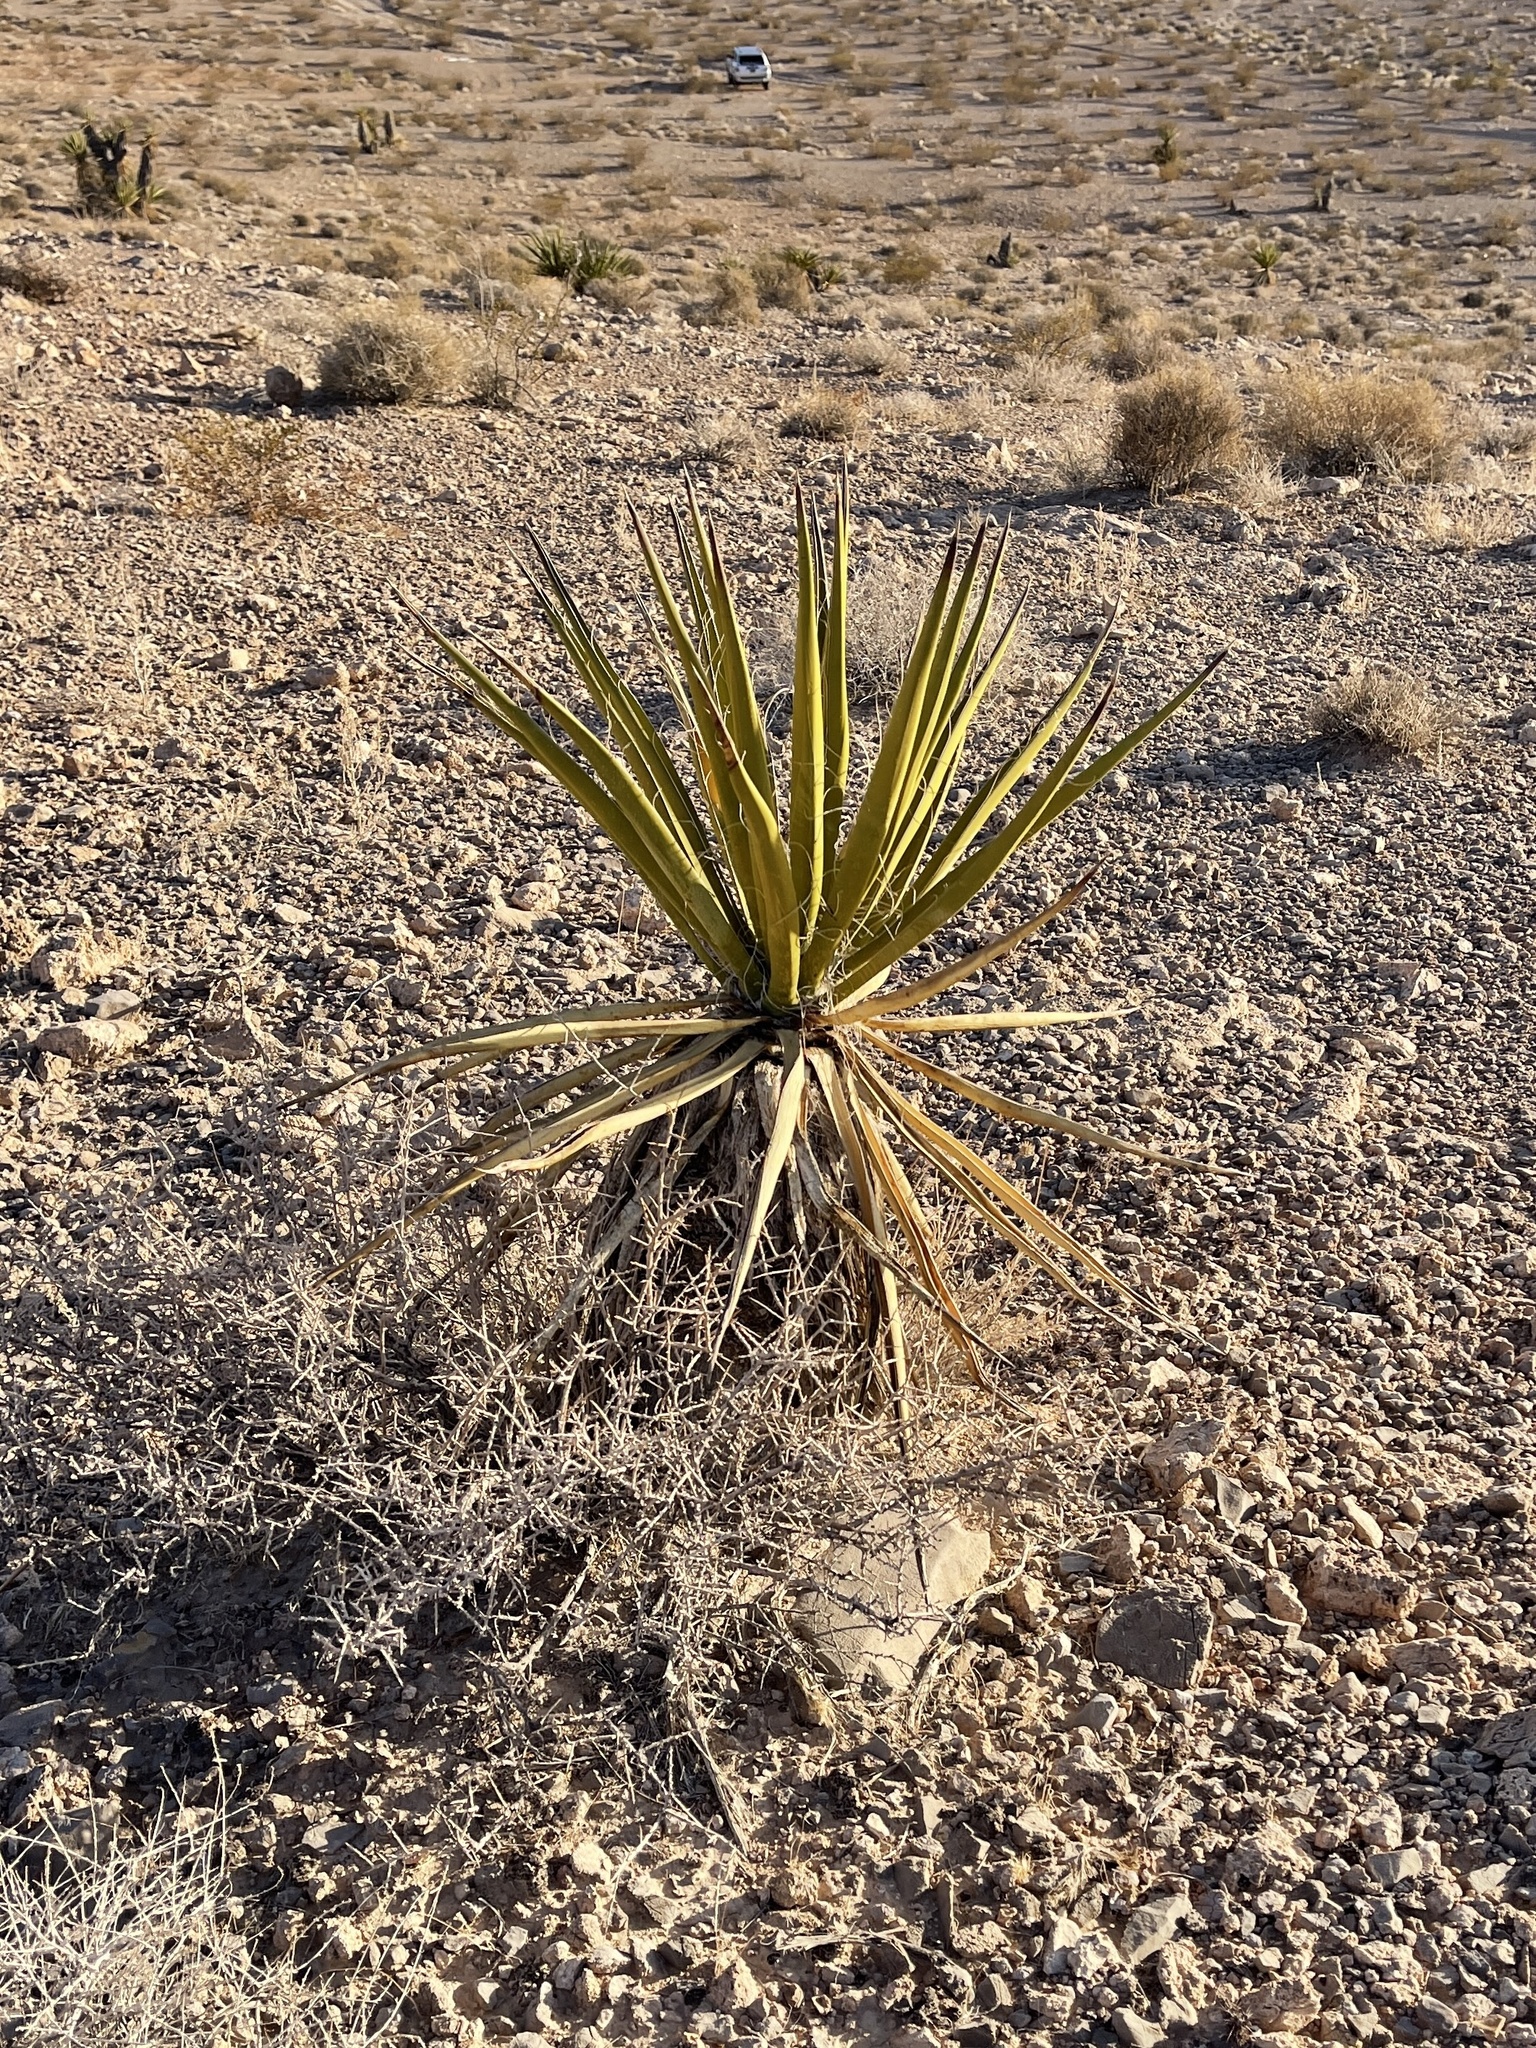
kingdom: Plantae
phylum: Tracheophyta
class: Liliopsida
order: Asparagales
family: Asparagaceae
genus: Yucca
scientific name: Yucca schidigera
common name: Mojave yucca
